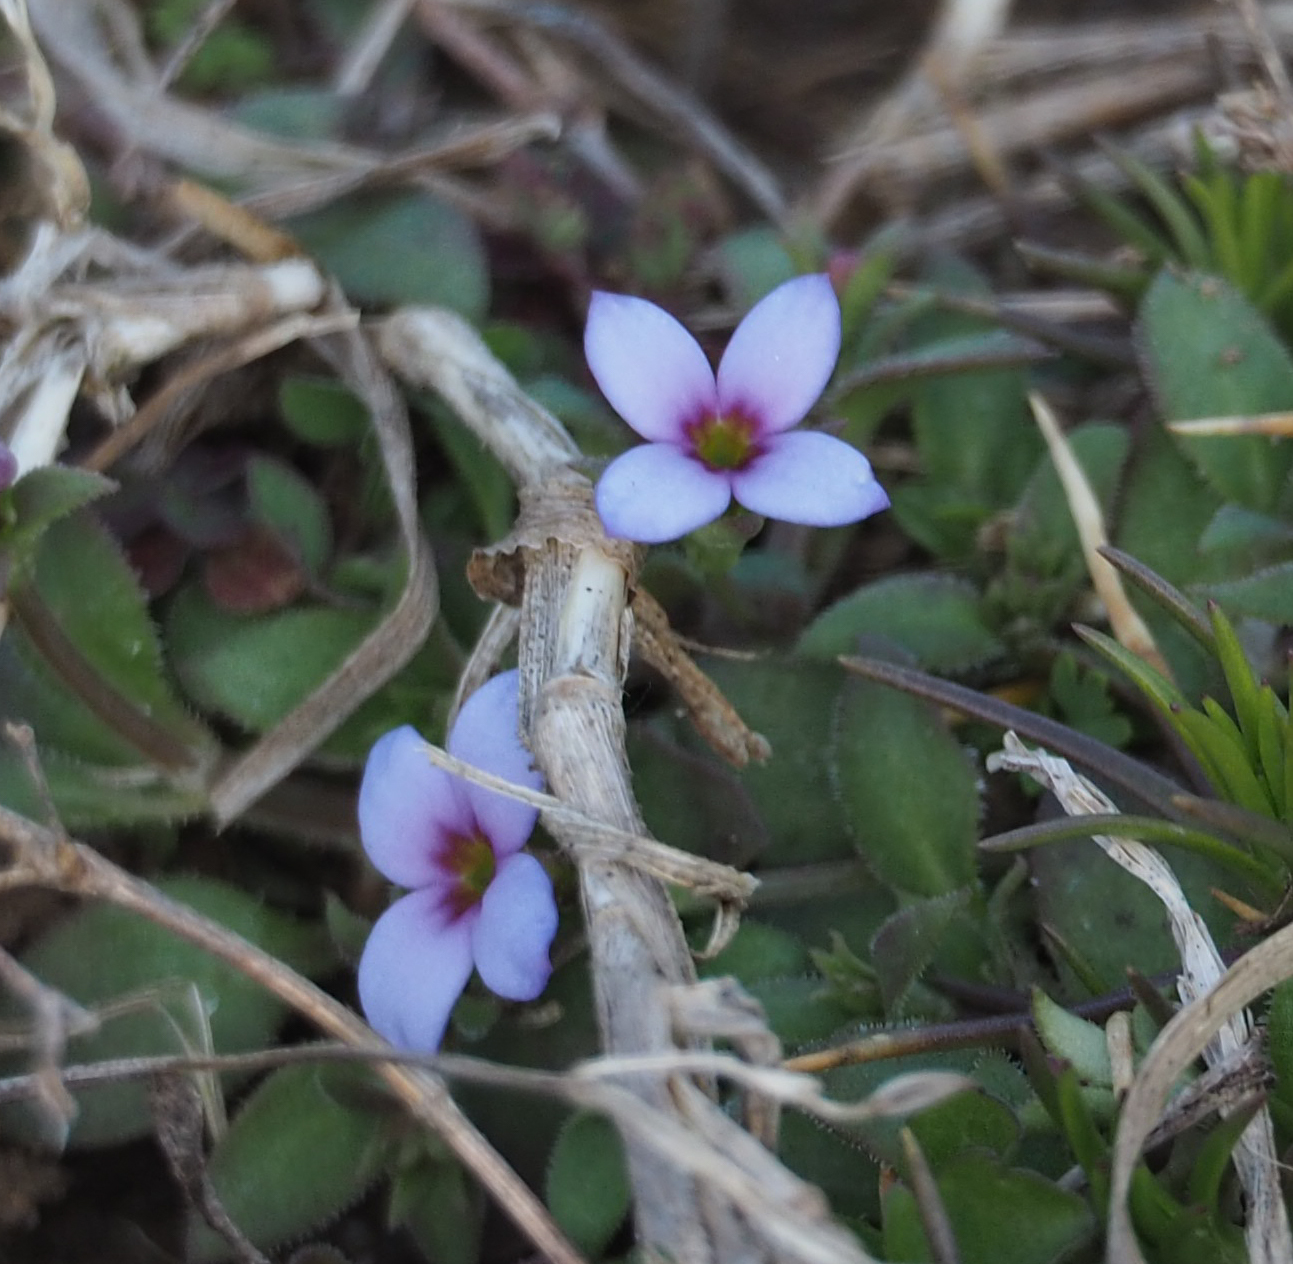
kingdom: Plantae
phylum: Tracheophyta
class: Magnoliopsida
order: Gentianales
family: Rubiaceae
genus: Houstonia
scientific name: Houstonia pusilla
